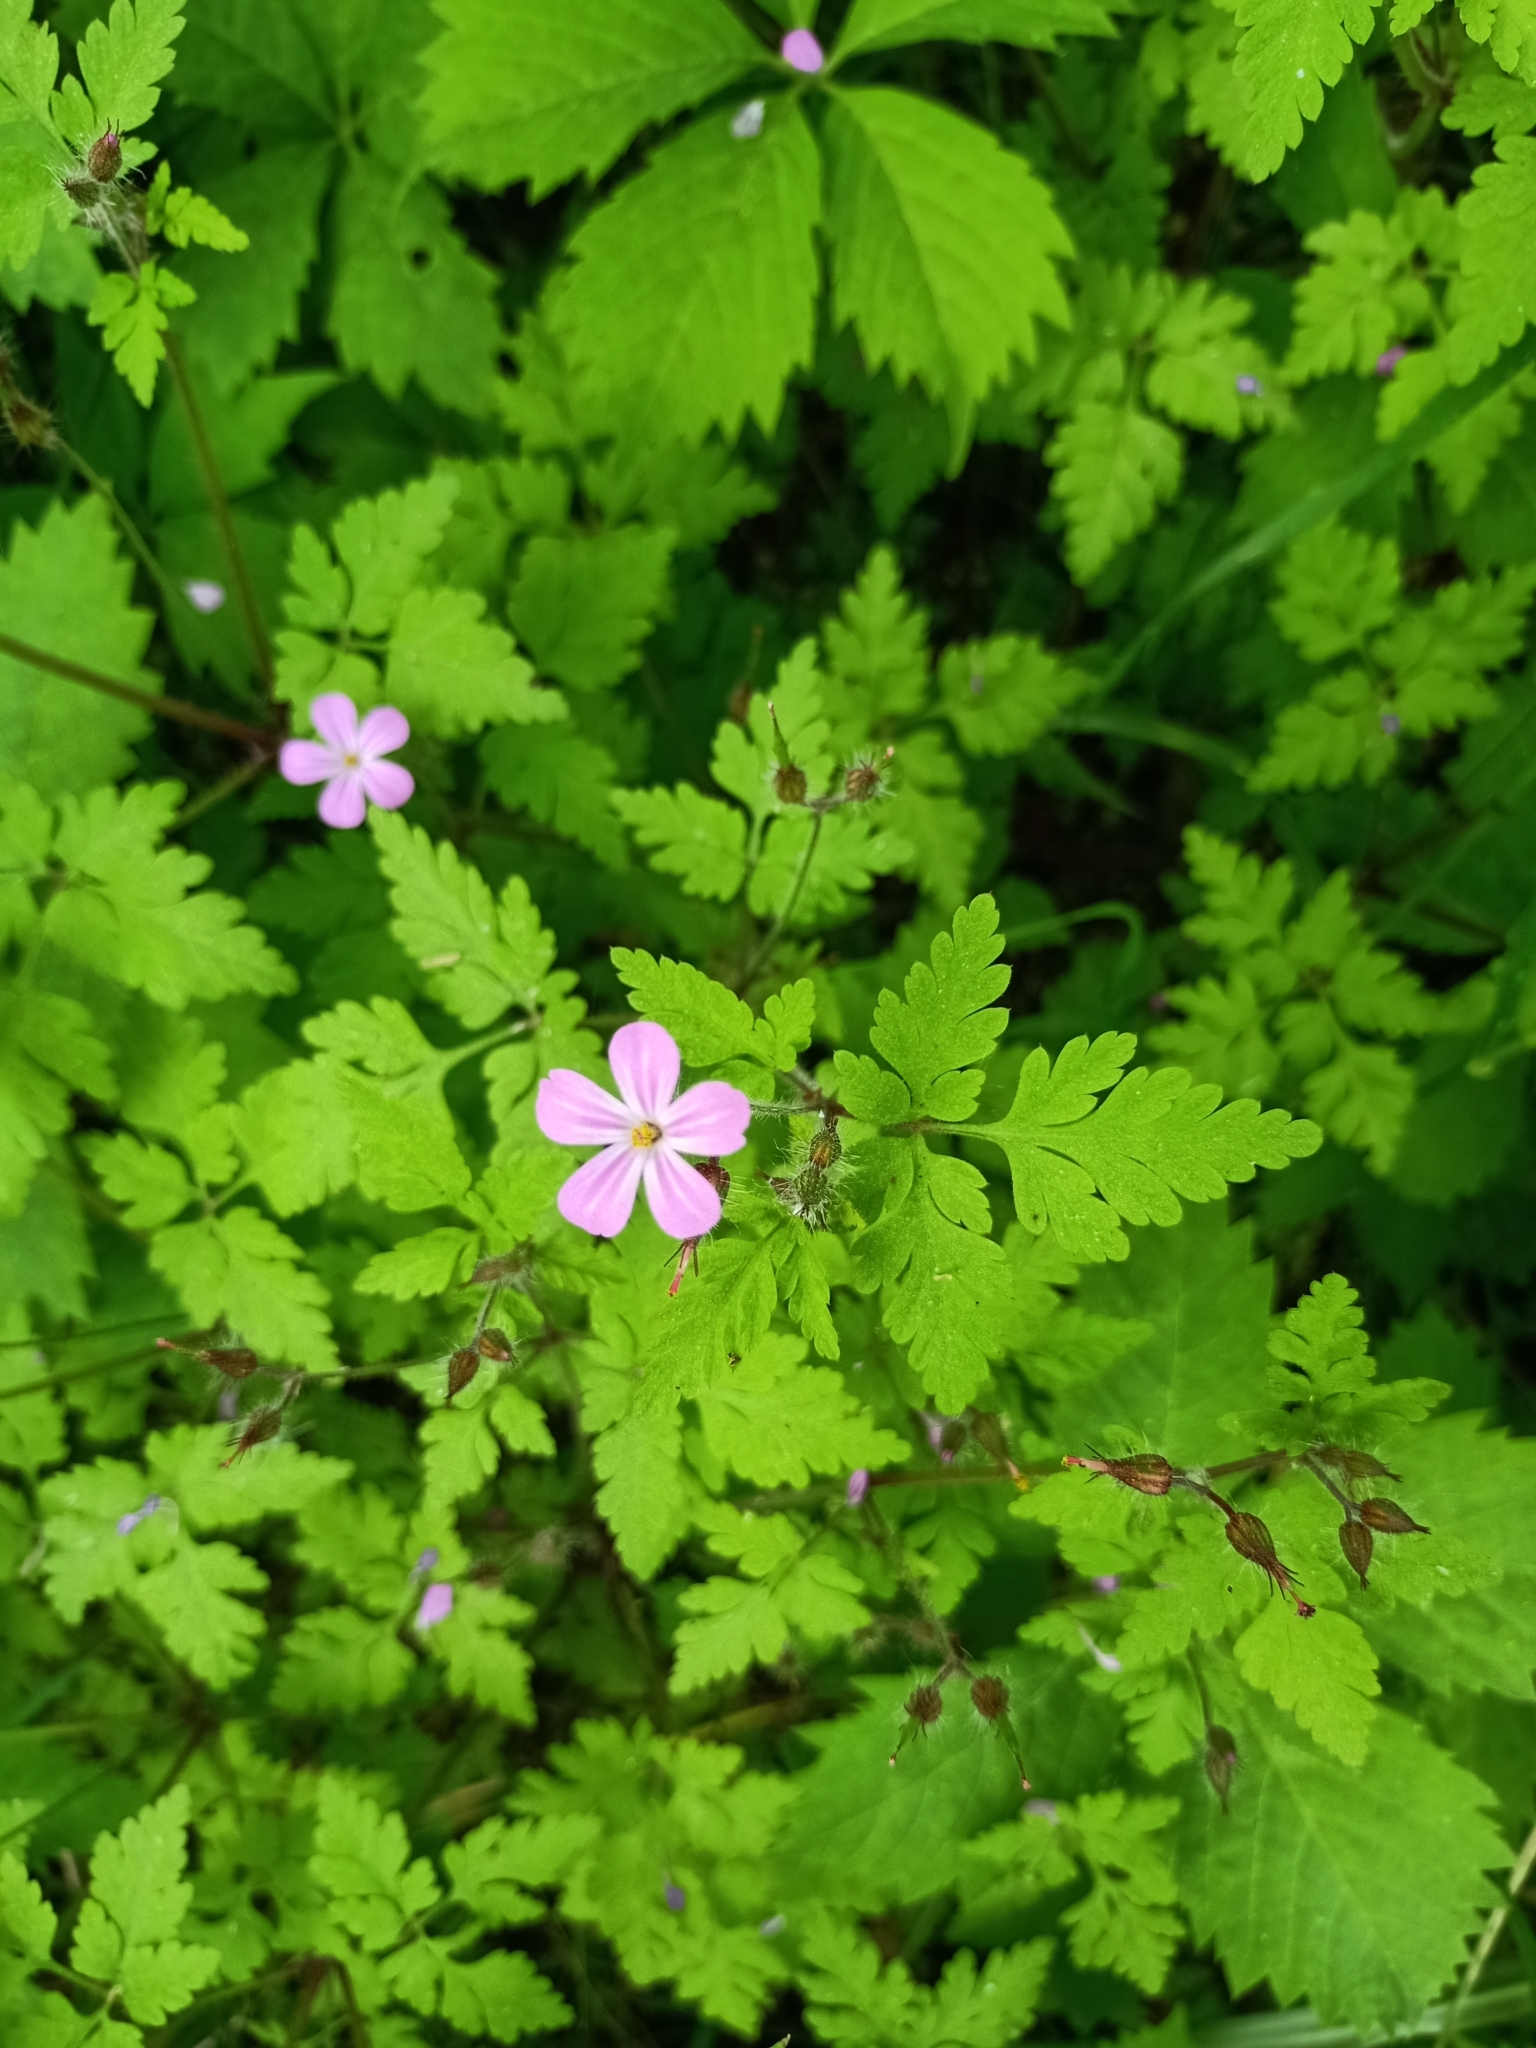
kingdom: Plantae
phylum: Tracheophyta
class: Magnoliopsida
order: Geraniales
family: Geraniaceae
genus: Geranium
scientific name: Geranium robertianum
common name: Herb-robert
